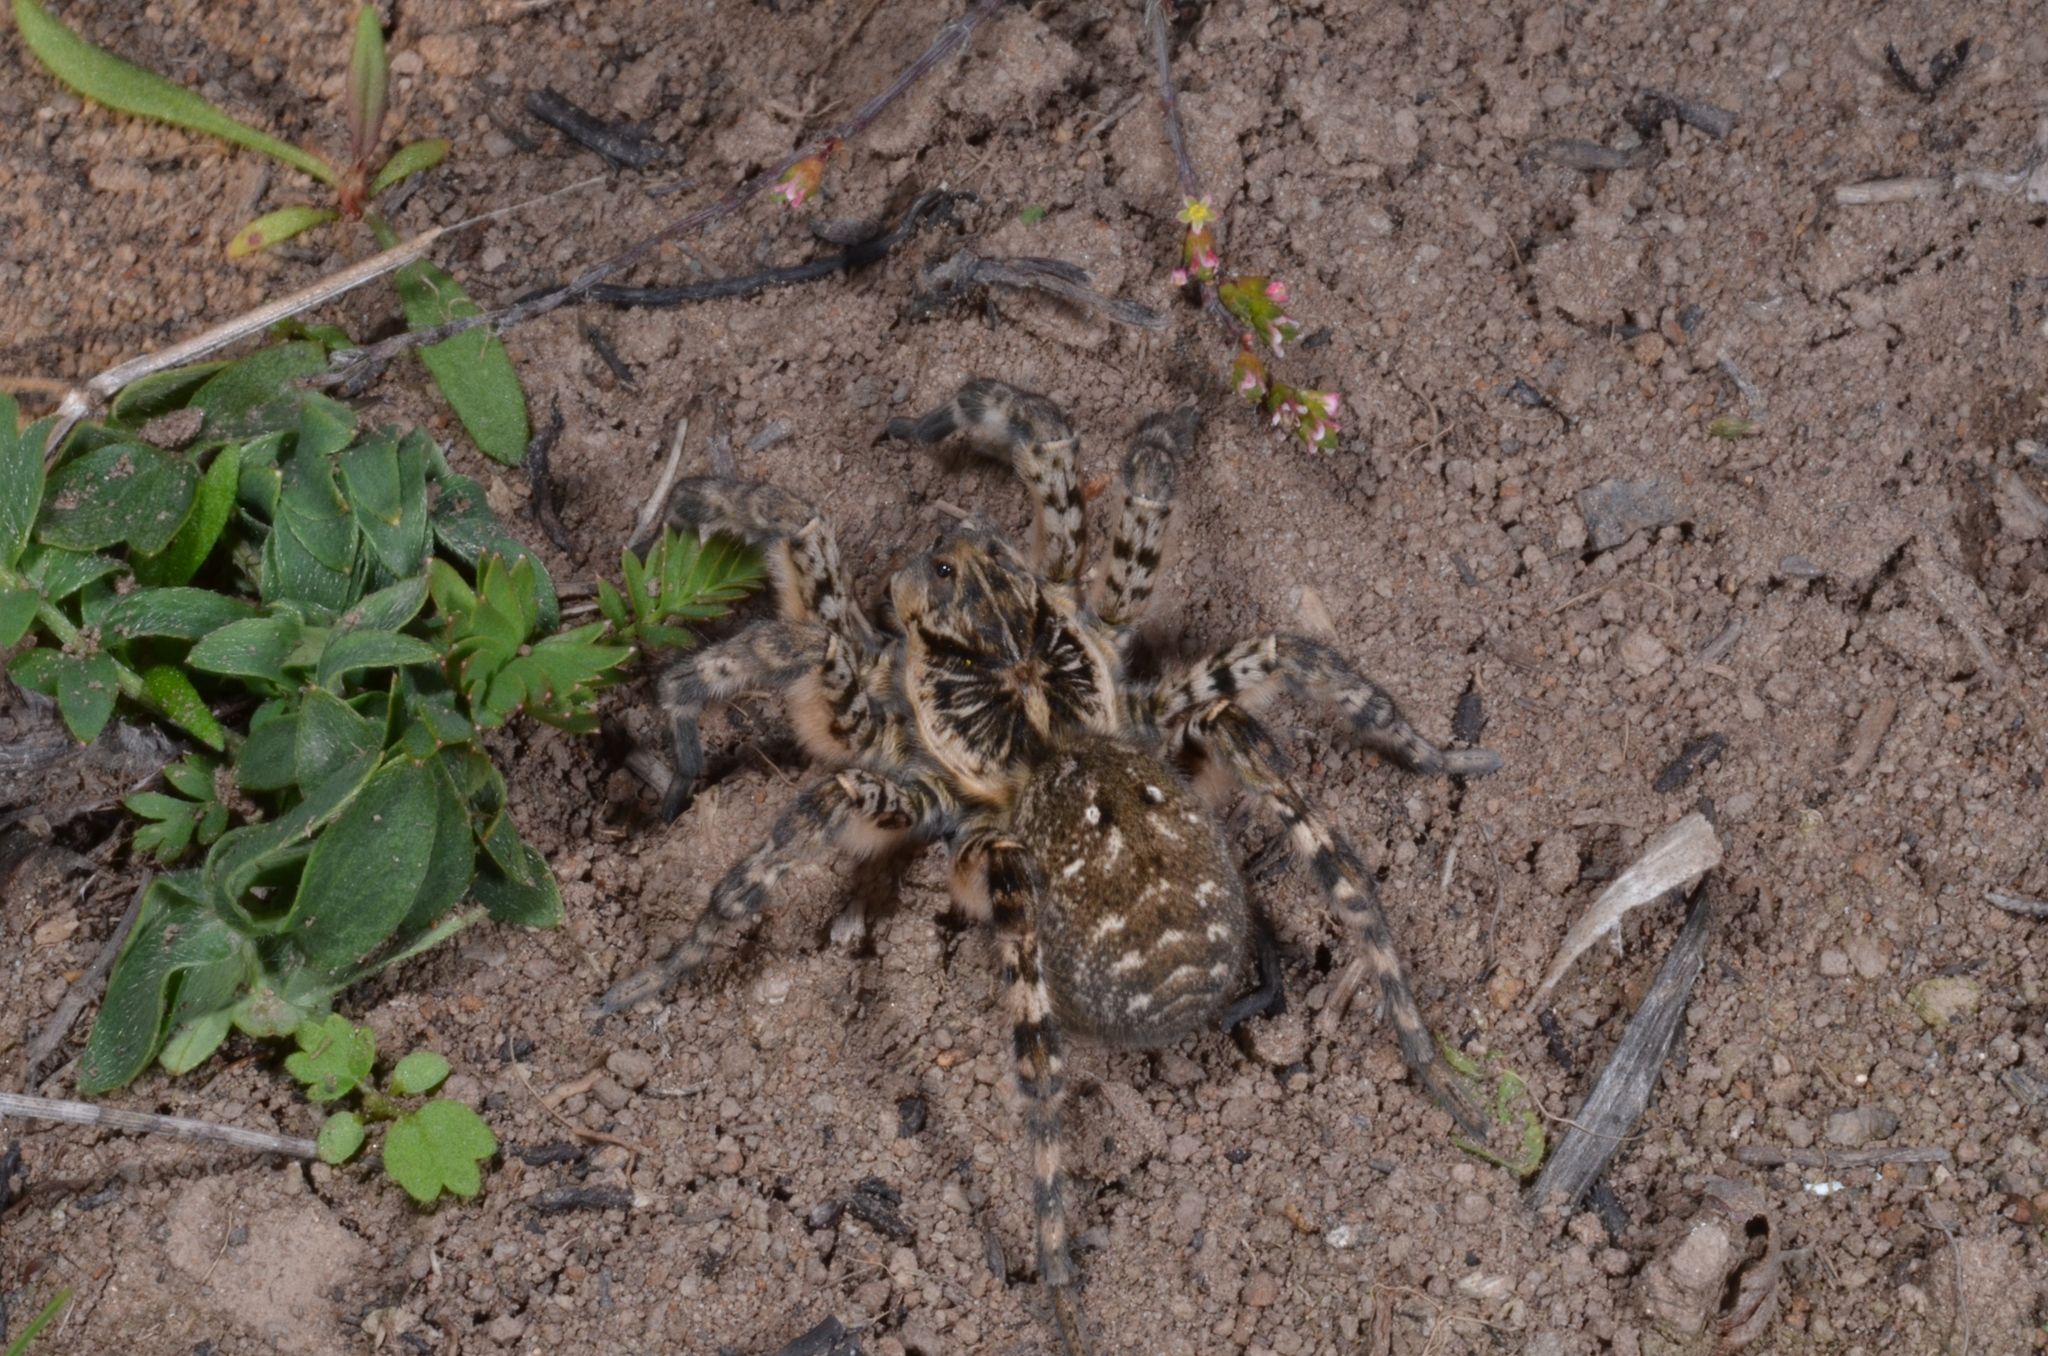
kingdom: Animalia
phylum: Arthropoda
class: Arachnida
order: Araneae
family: Lycosidae
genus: Lycosa
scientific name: Lycosa singoriensis
